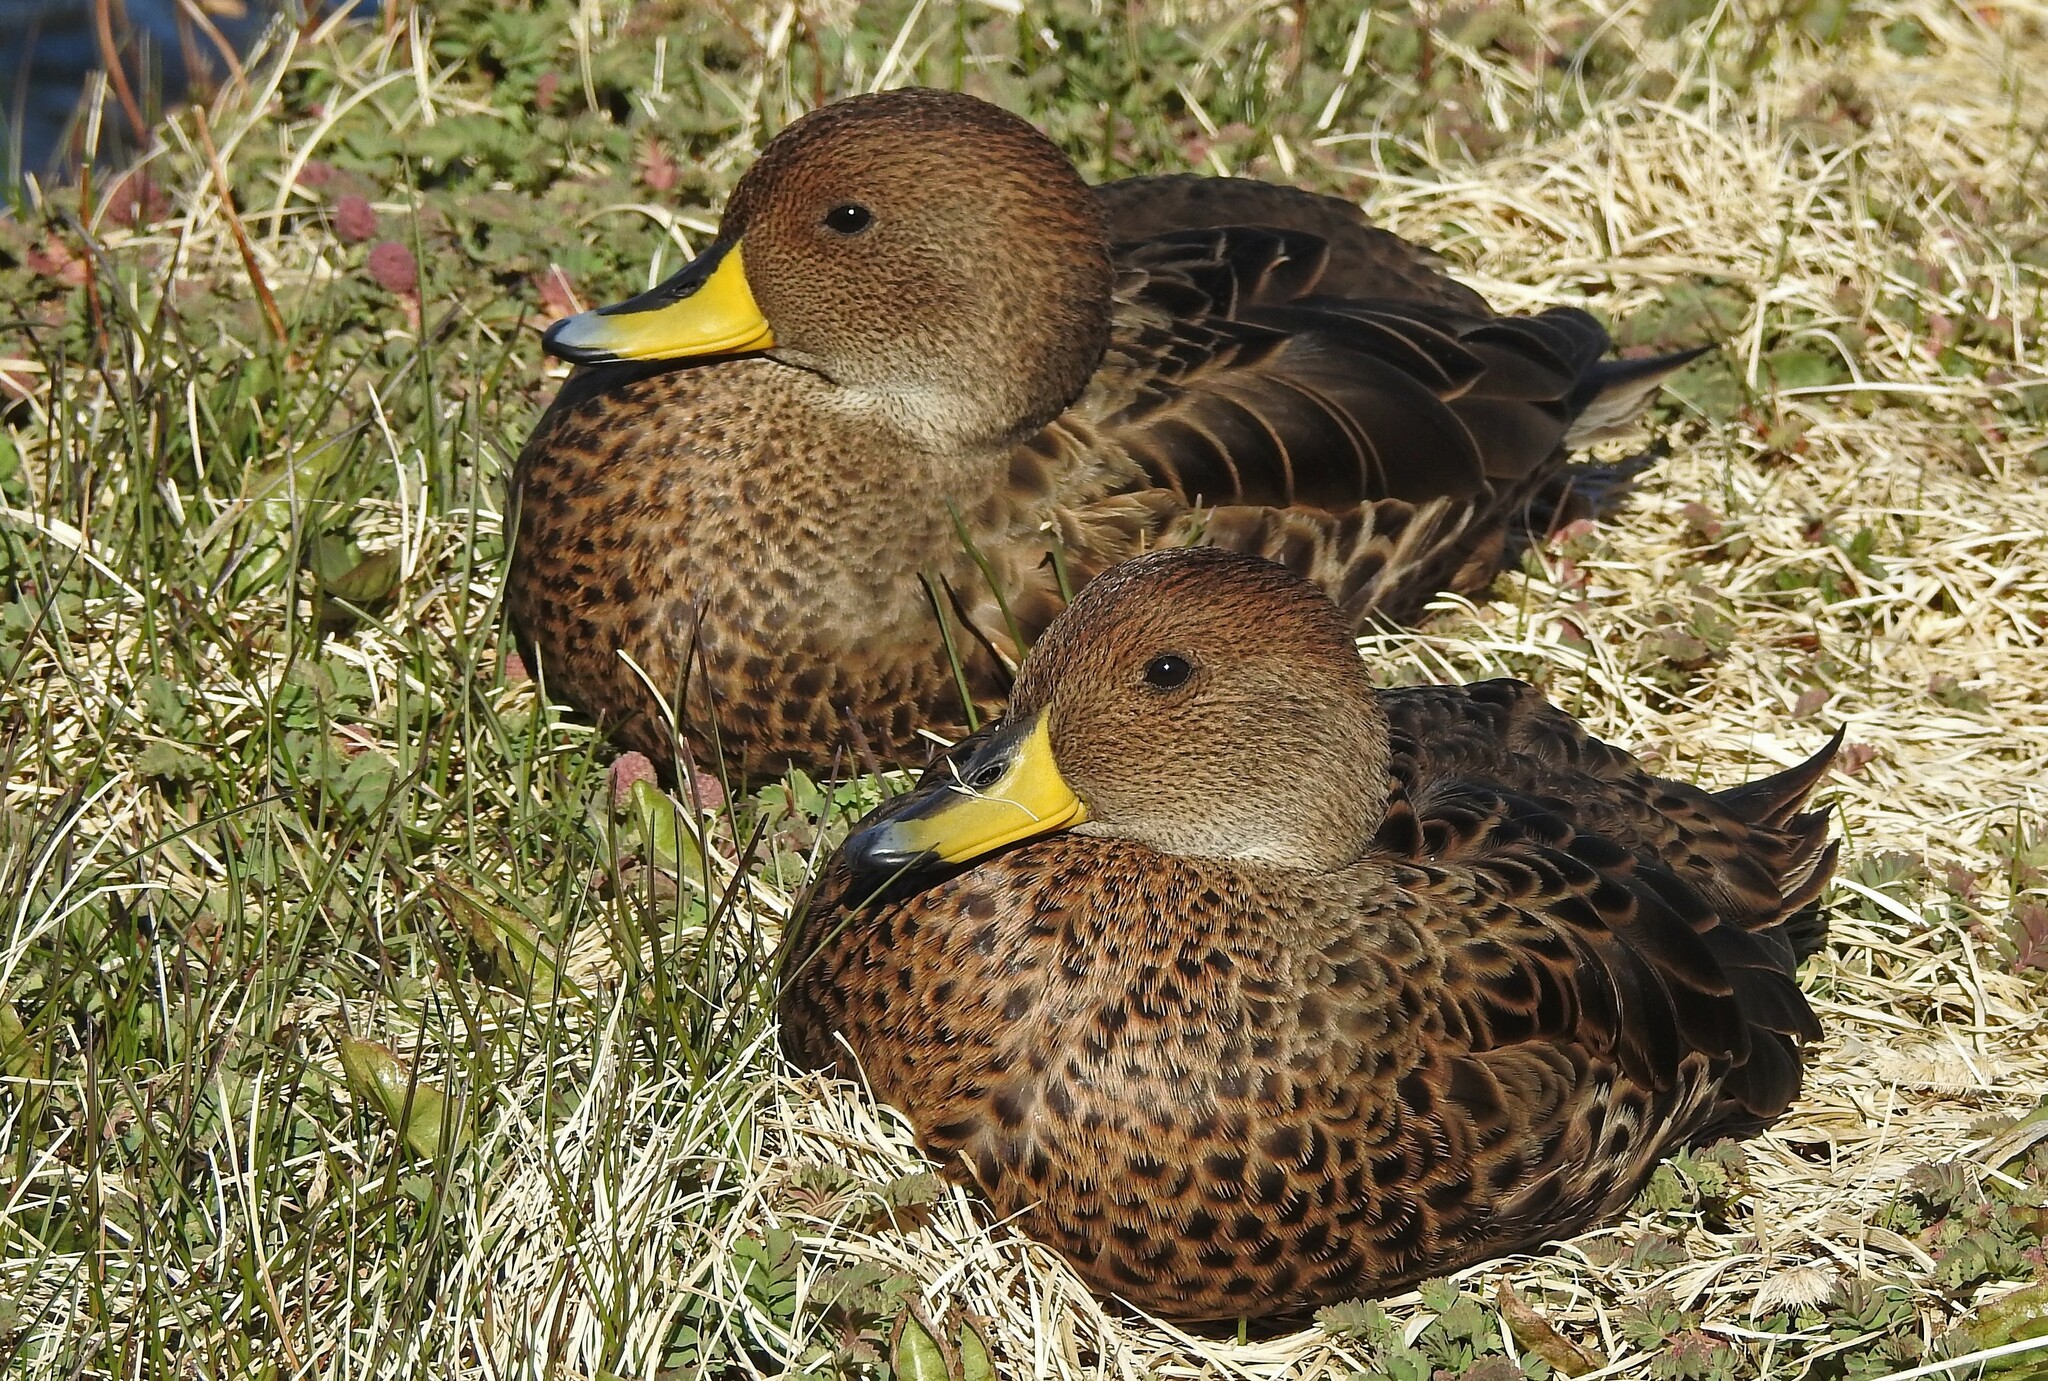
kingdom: Animalia
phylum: Chordata
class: Aves
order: Anseriformes
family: Anatidae
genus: Anas
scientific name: Anas georgica
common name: Yellow-billed pintail
